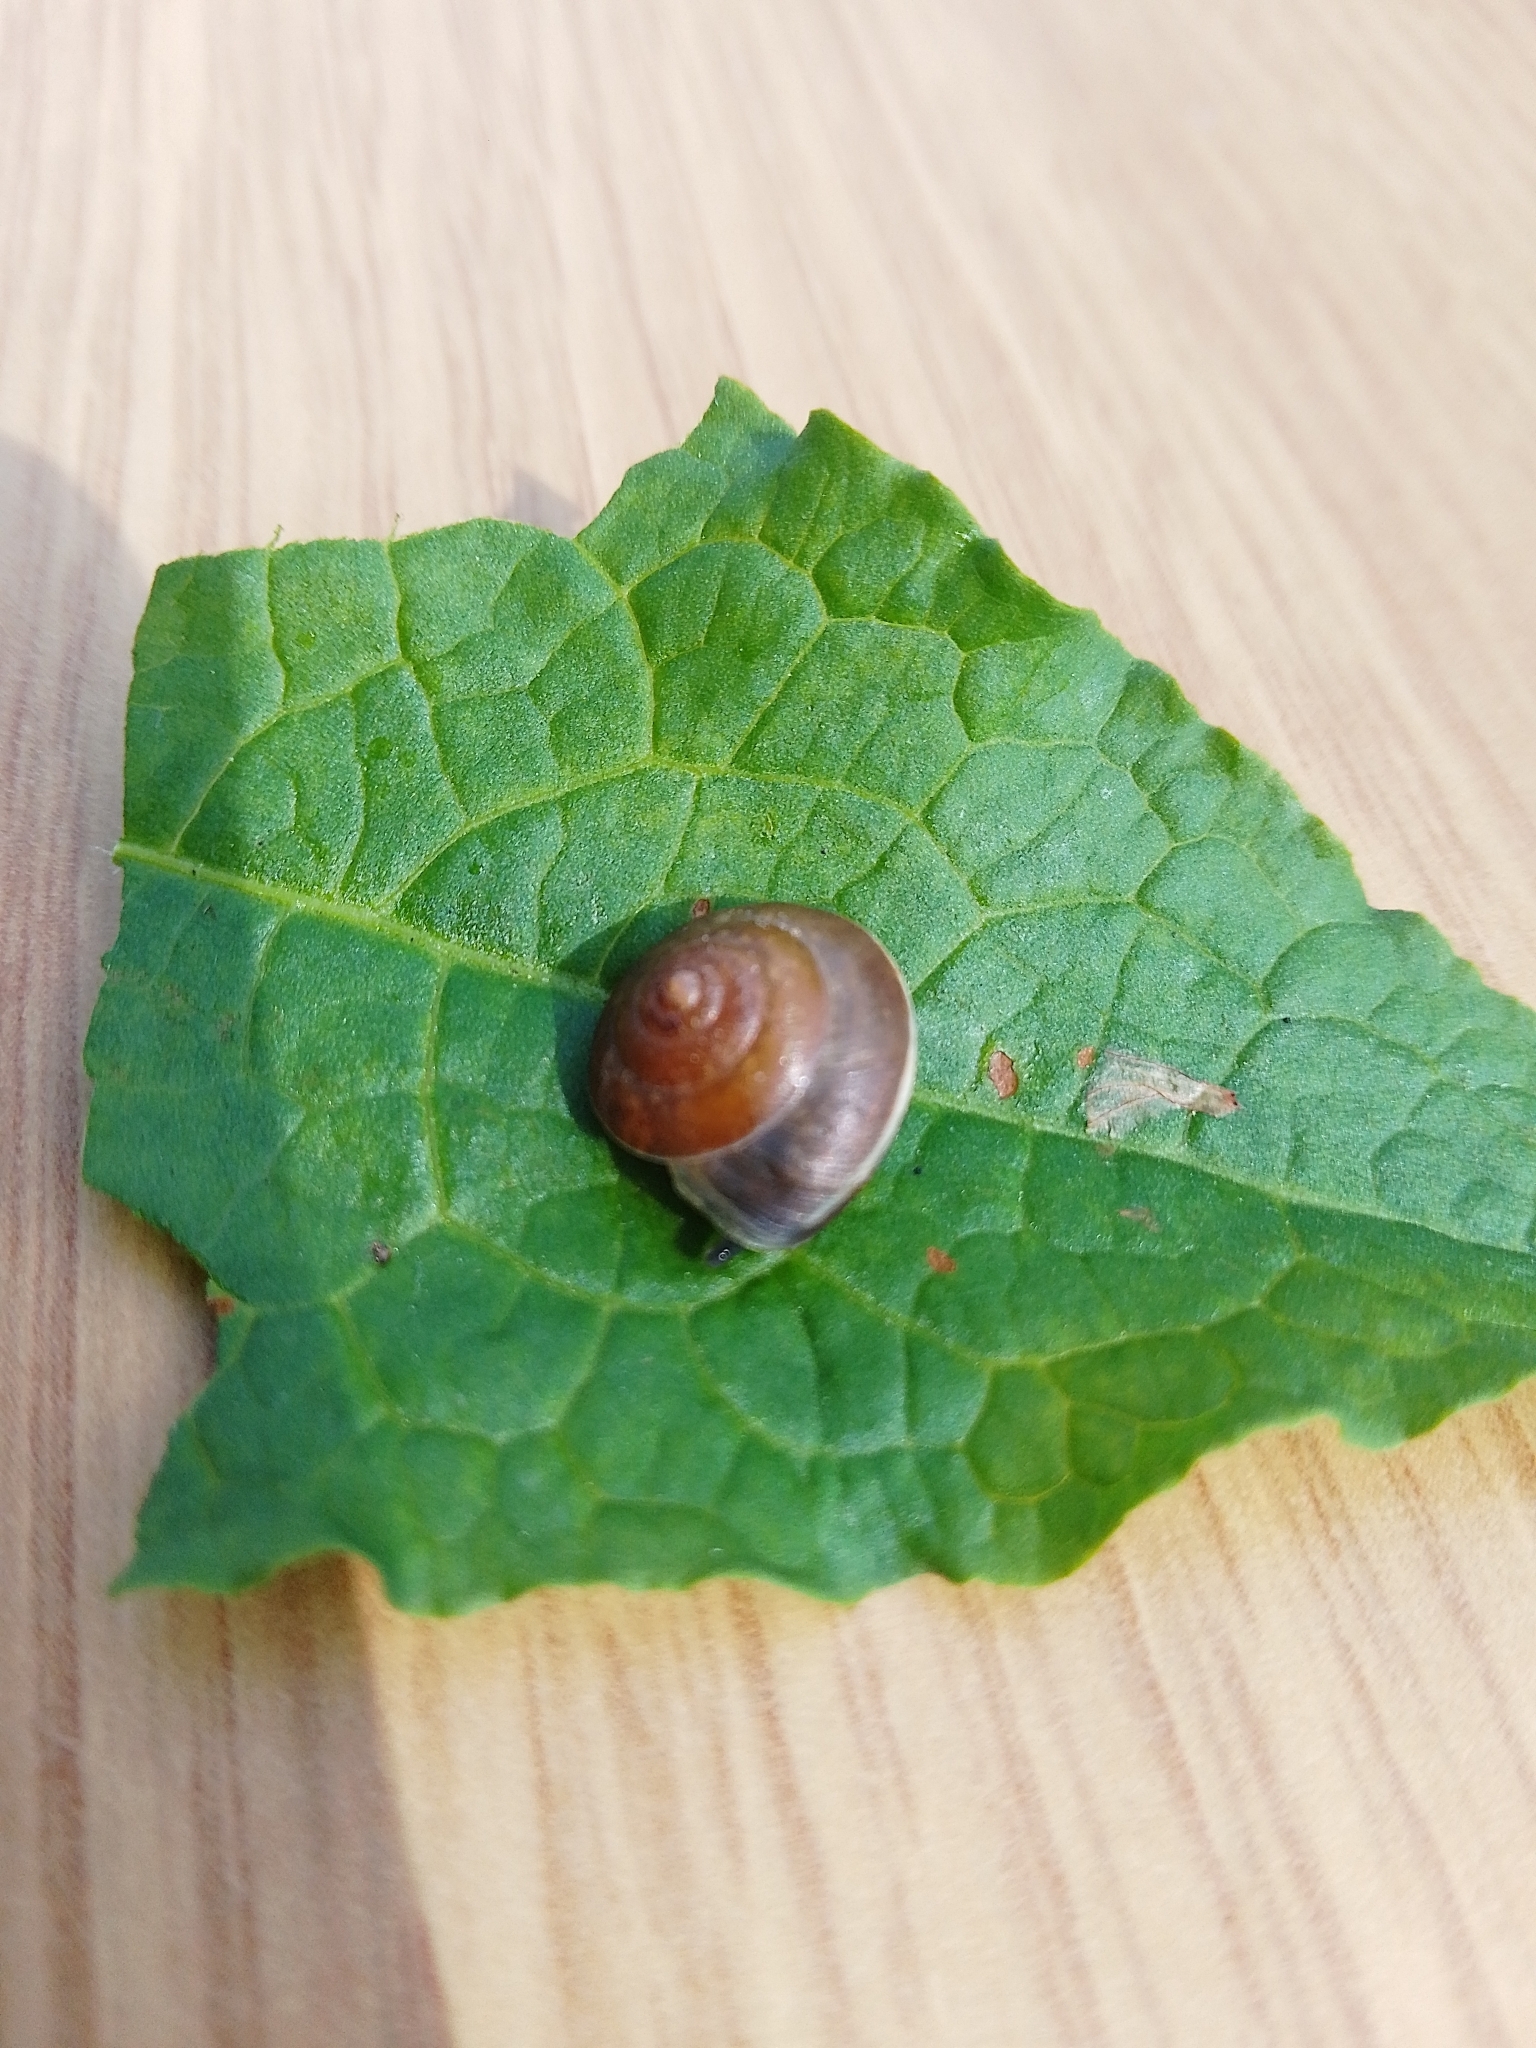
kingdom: Animalia
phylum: Mollusca
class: Gastropoda
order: Stylommatophora
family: Hygromiidae
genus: Hygromia
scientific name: Hygromia cinctella
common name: Girdled snail
